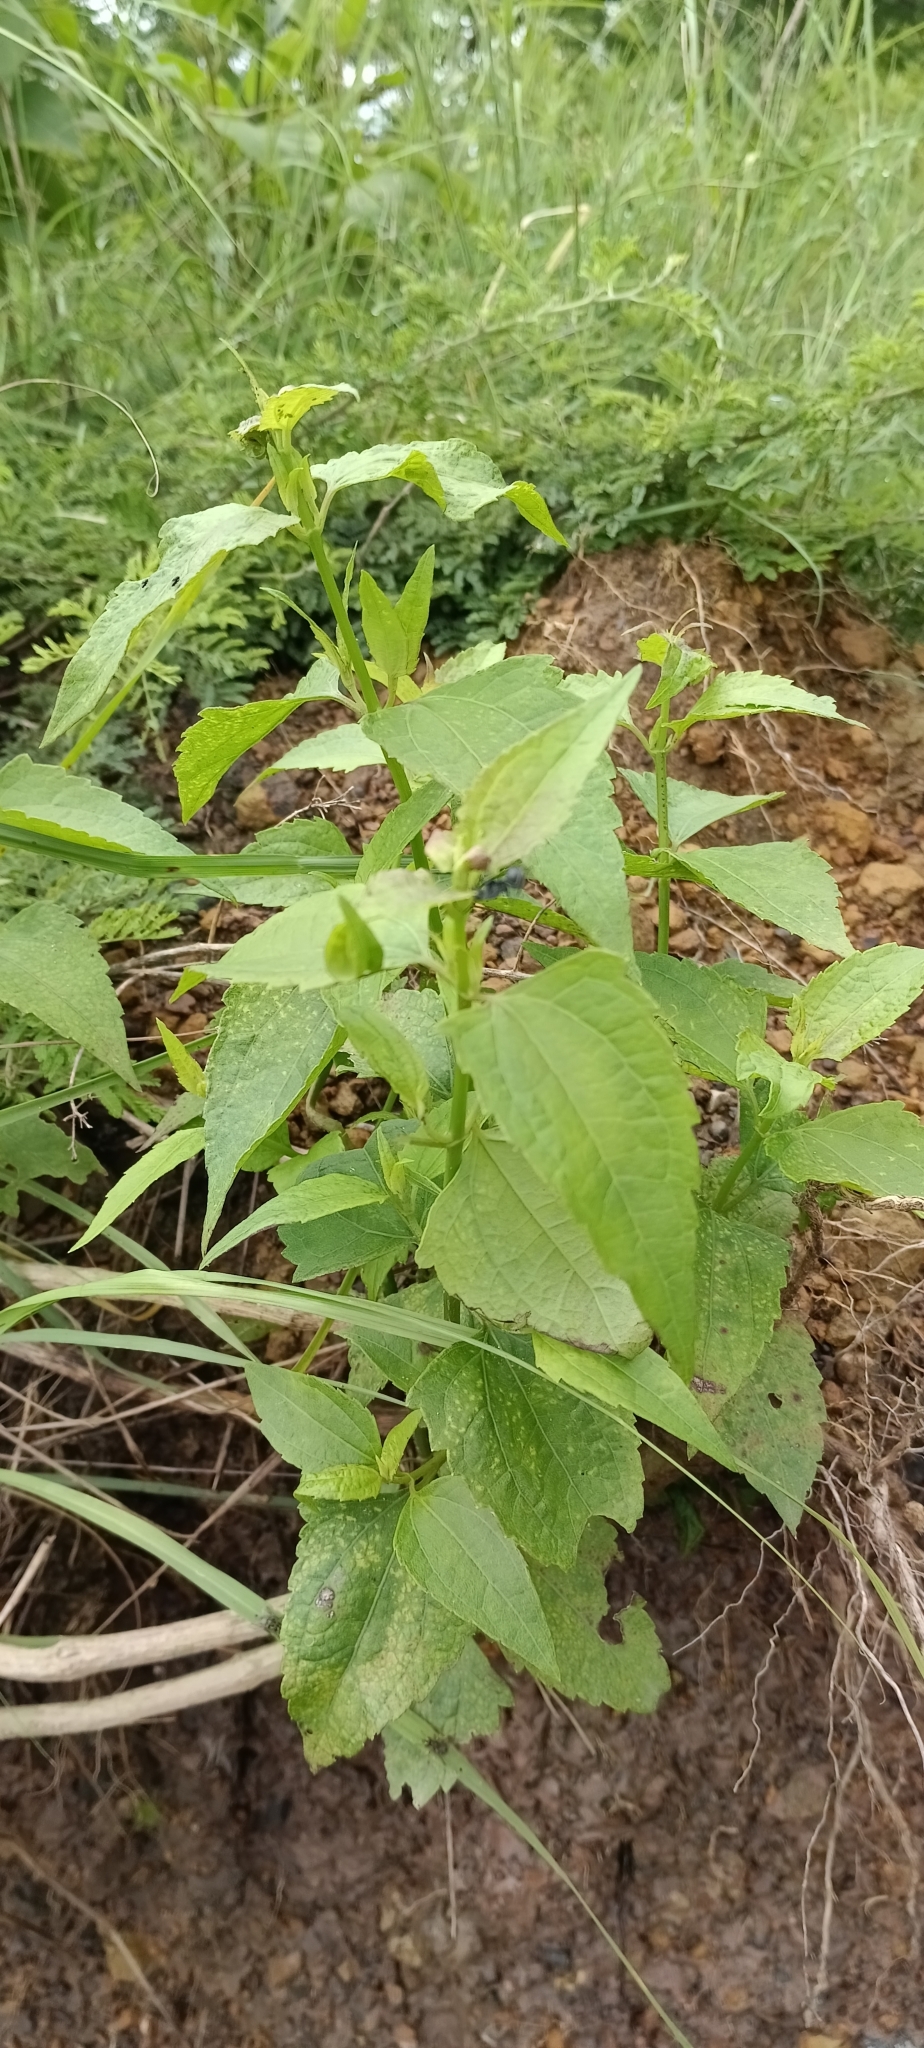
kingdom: Plantae
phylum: Tracheophyta
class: Magnoliopsida
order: Asterales
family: Asteraceae
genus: Chromolaena
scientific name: Chromolaena odorata
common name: Siamweed
